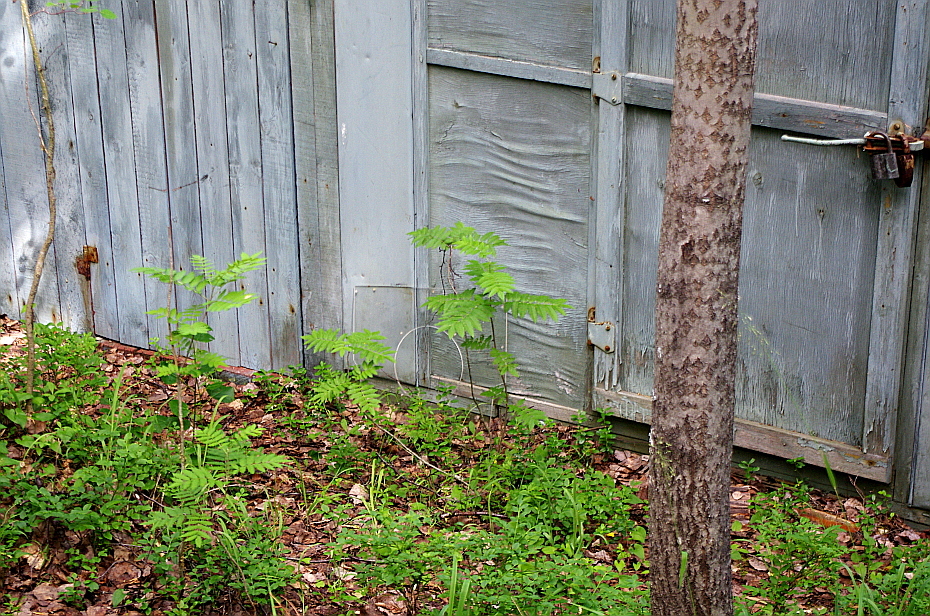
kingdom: Plantae
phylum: Tracheophyta
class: Magnoliopsida
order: Rosales
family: Rosaceae
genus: Sorbus
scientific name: Sorbus aucuparia
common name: Rowan
